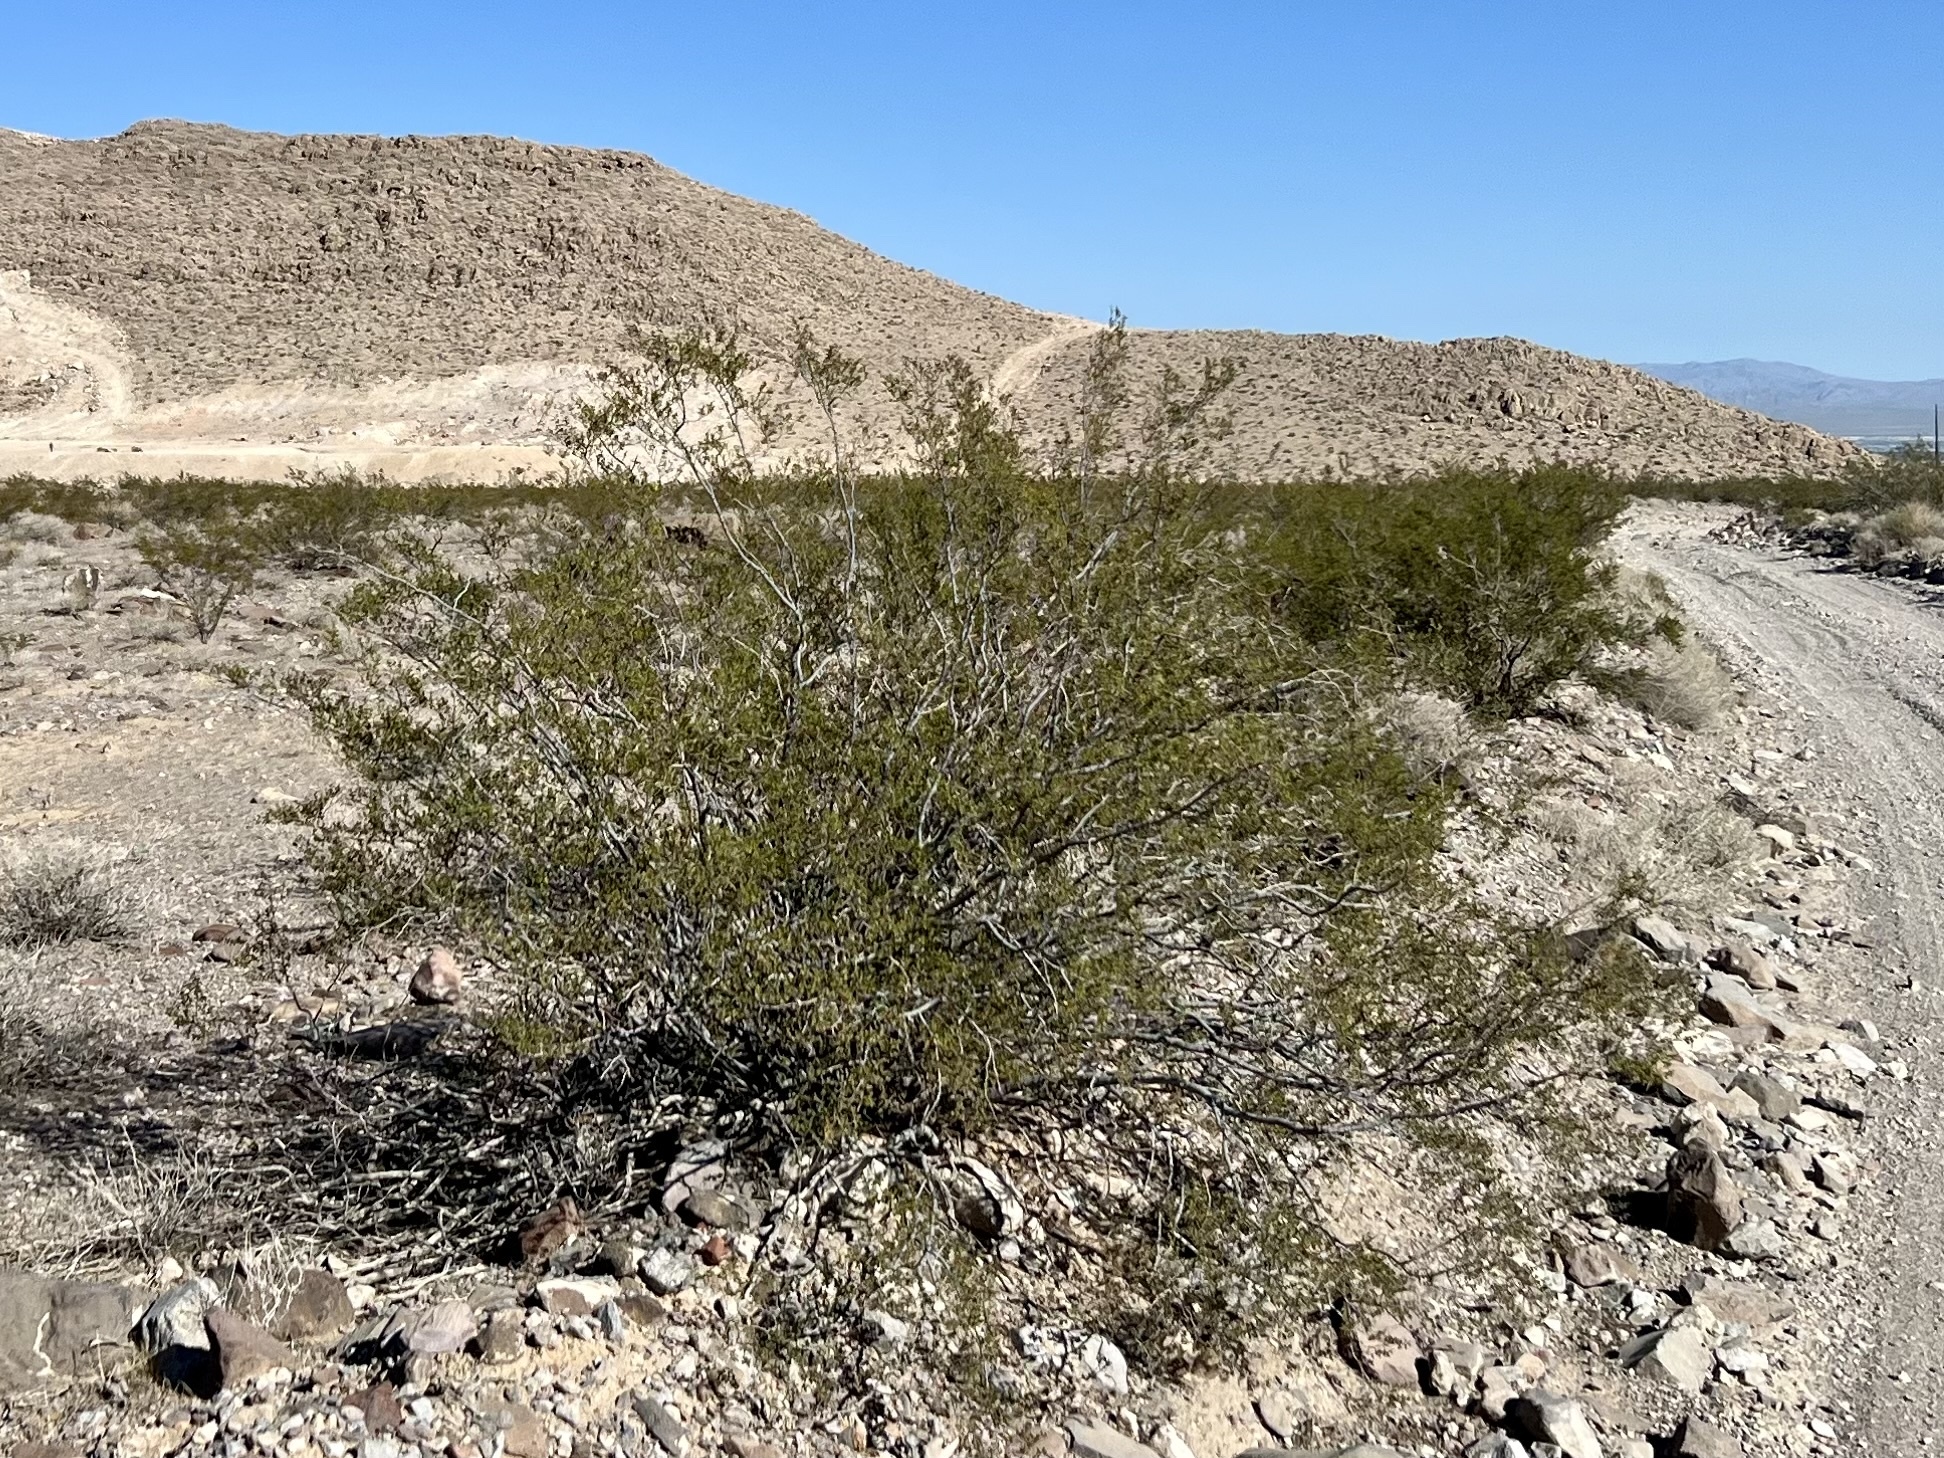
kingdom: Plantae
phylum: Tracheophyta
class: Magnoliopsida
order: Zygophyllales
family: Zygophyllaceae
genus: Larrea
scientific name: Larrea tridentata
